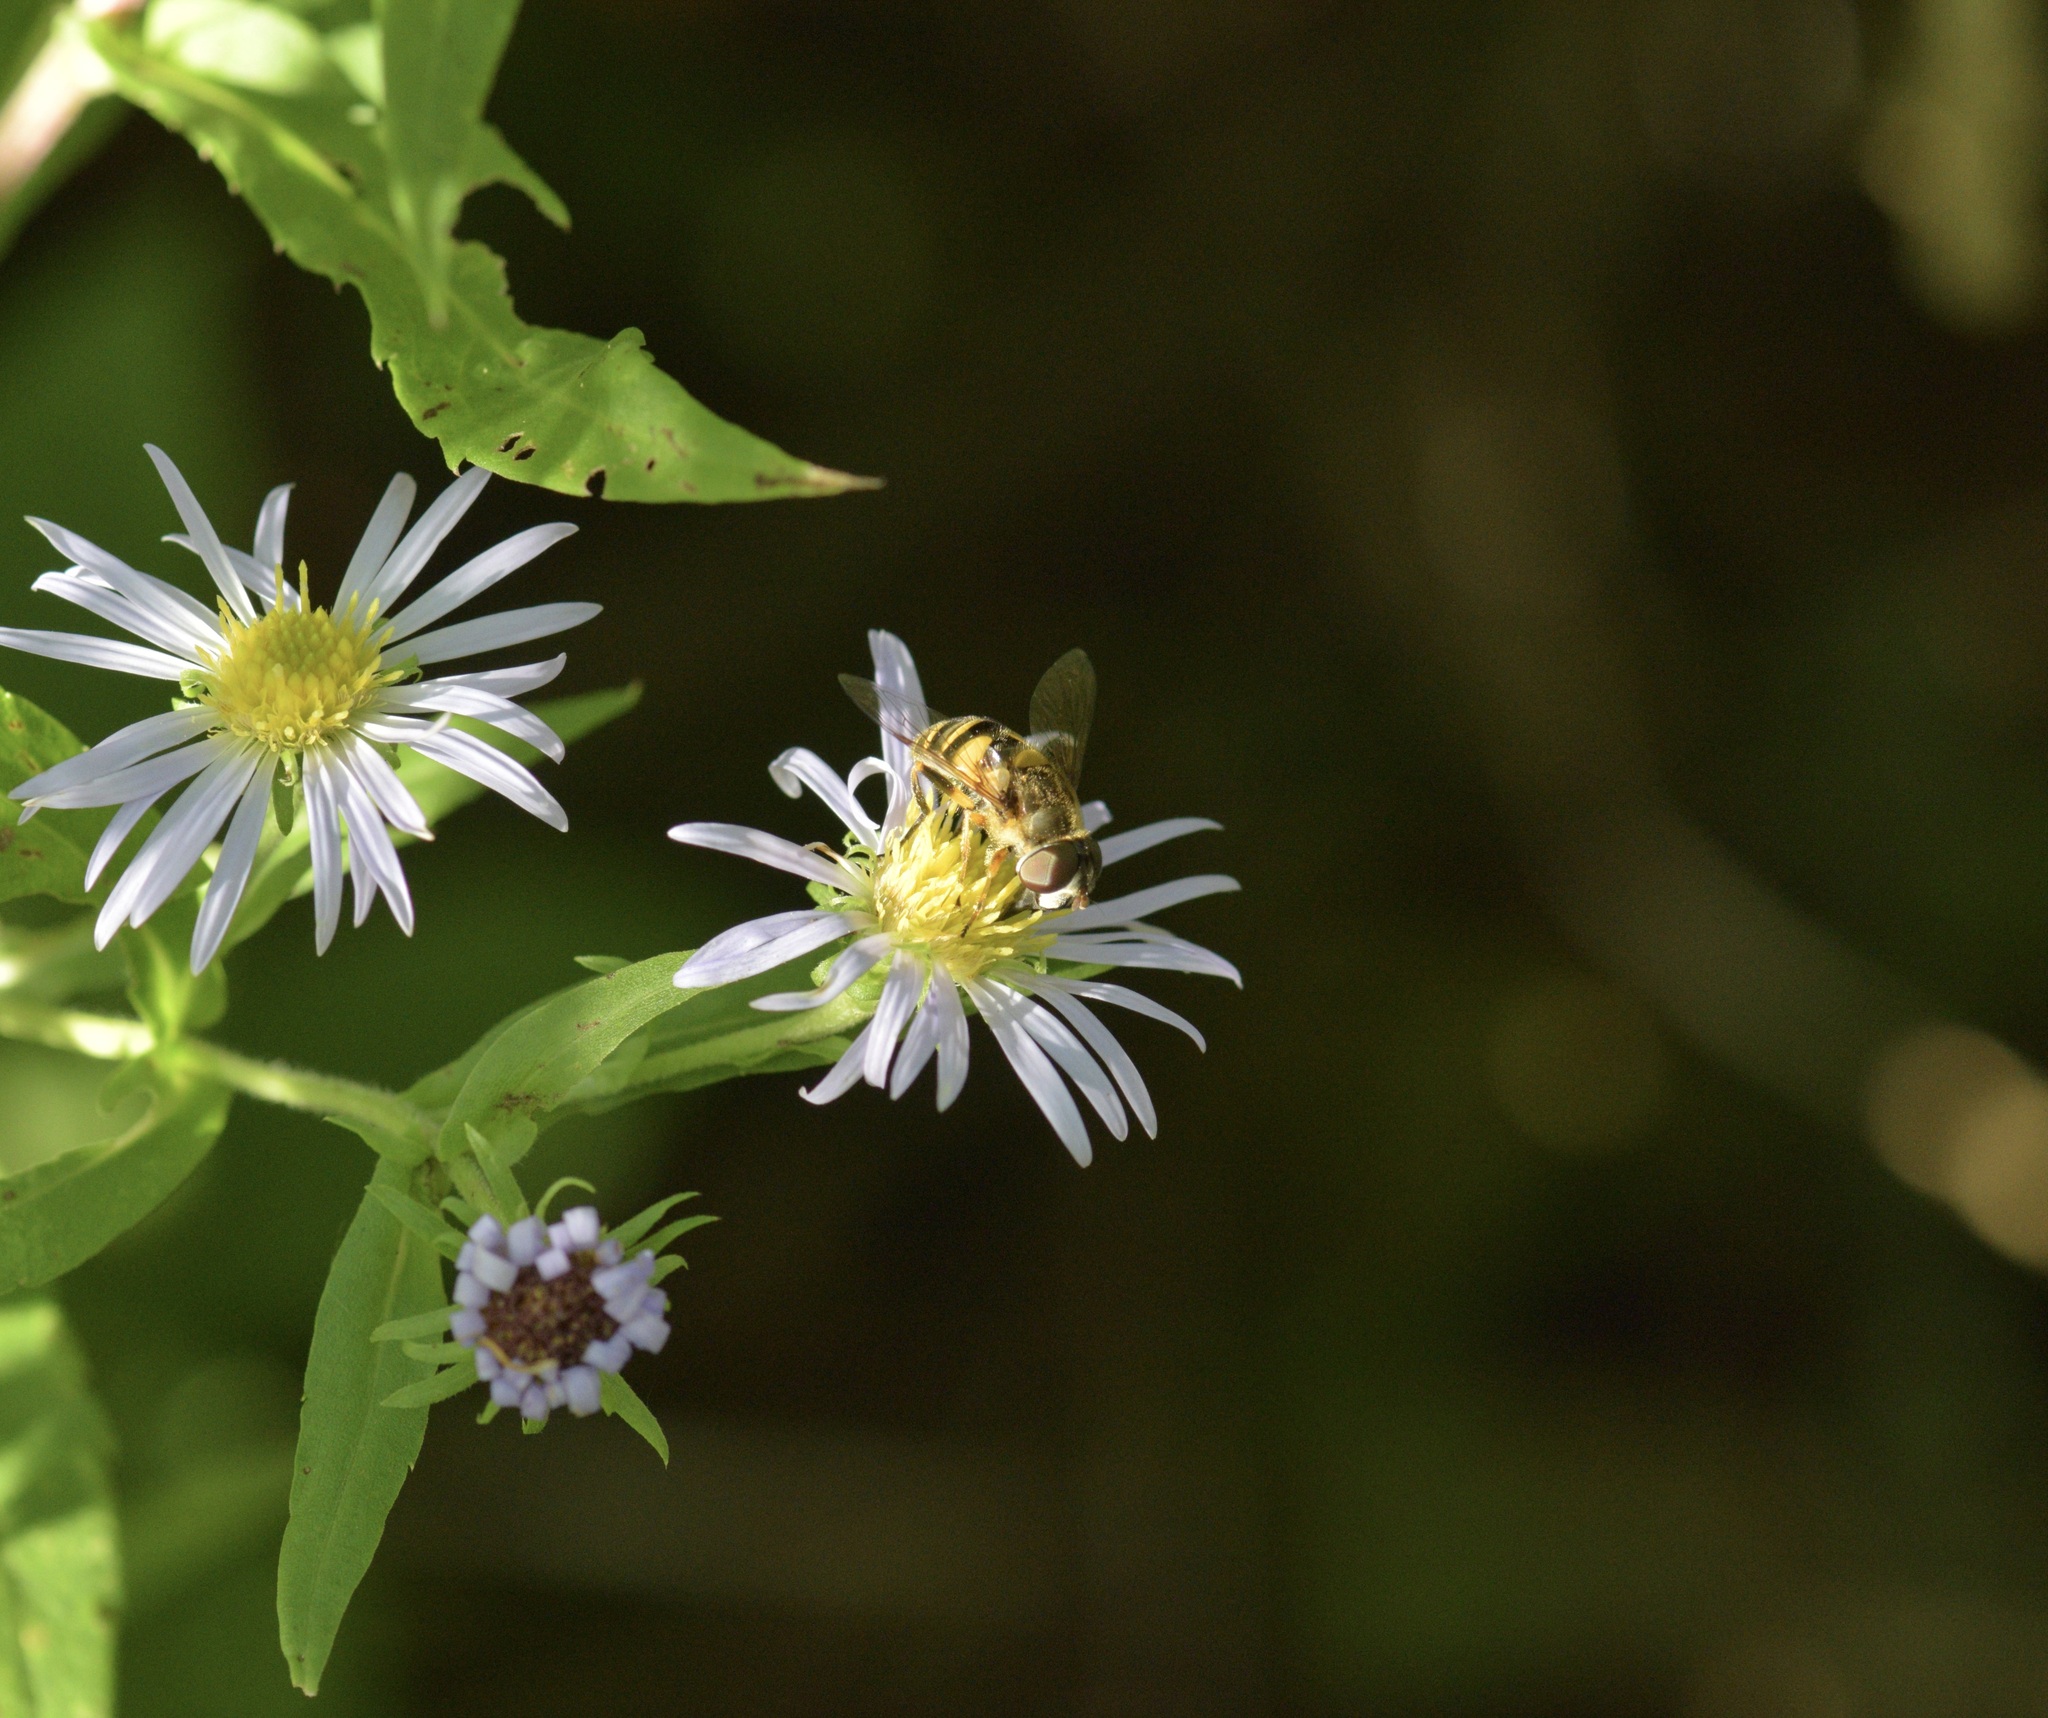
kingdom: Animalia
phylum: Arthropoda
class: Insecta
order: Diptera
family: Syrphidae
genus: Eristalis
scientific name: Eristalis transversa
